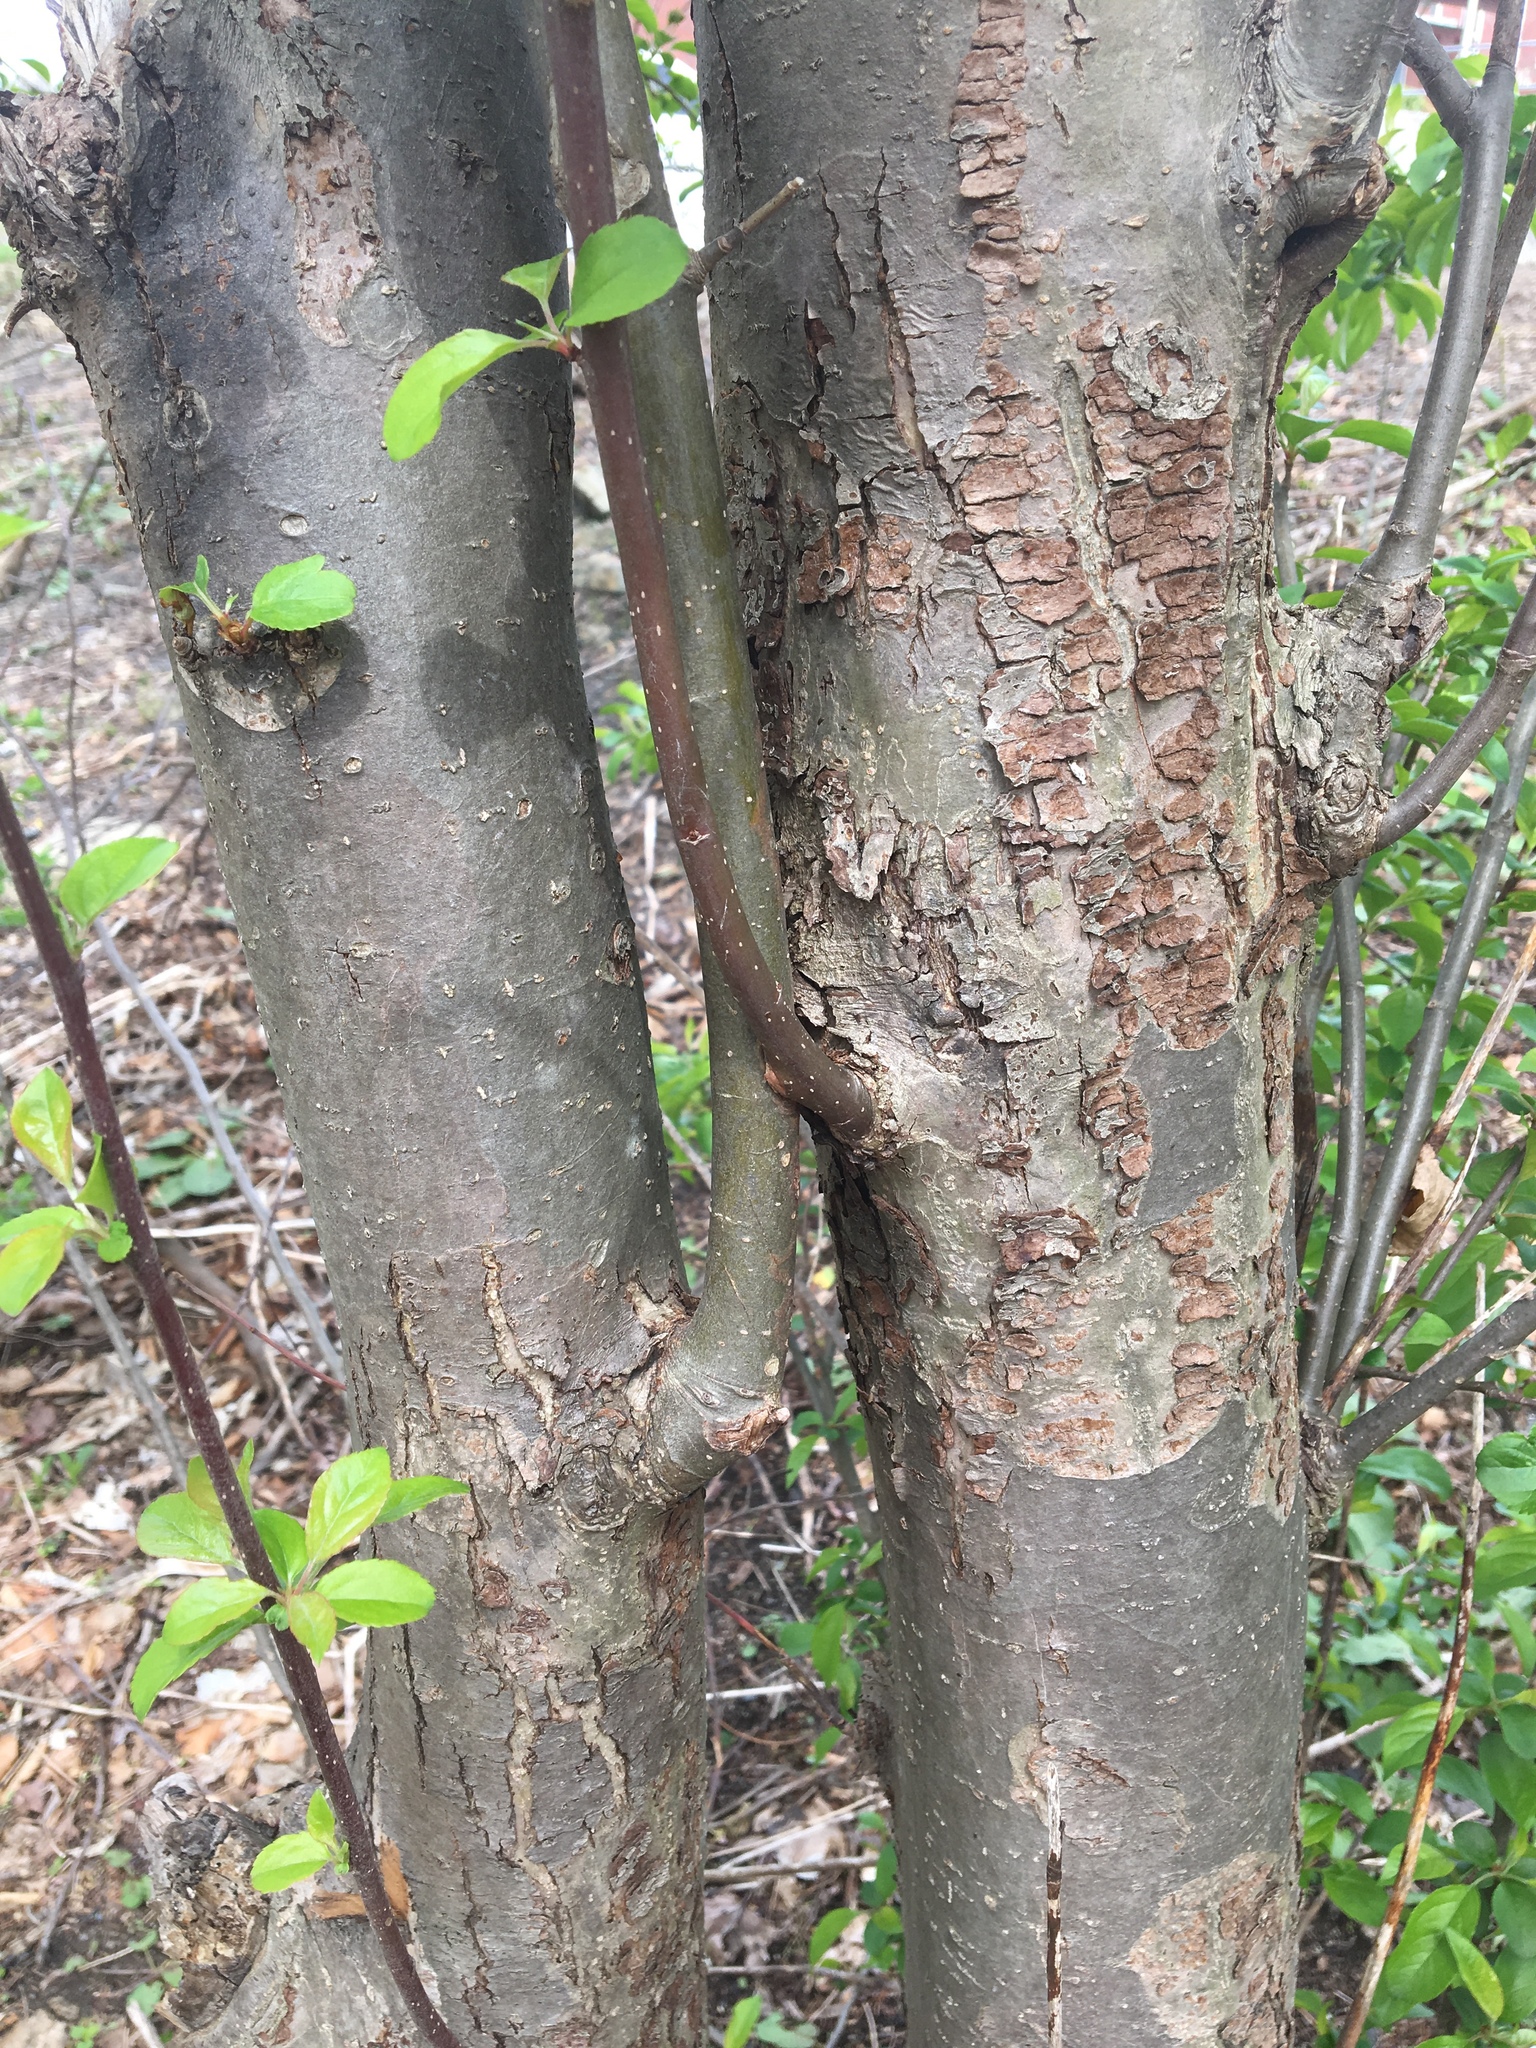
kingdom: Plantae
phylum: Tracheophyta
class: Magnoliopsida
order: Rosales
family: Rhamnaceae
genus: Rhamnus
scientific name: Rhamnus cathartica
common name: Common buckthorn
